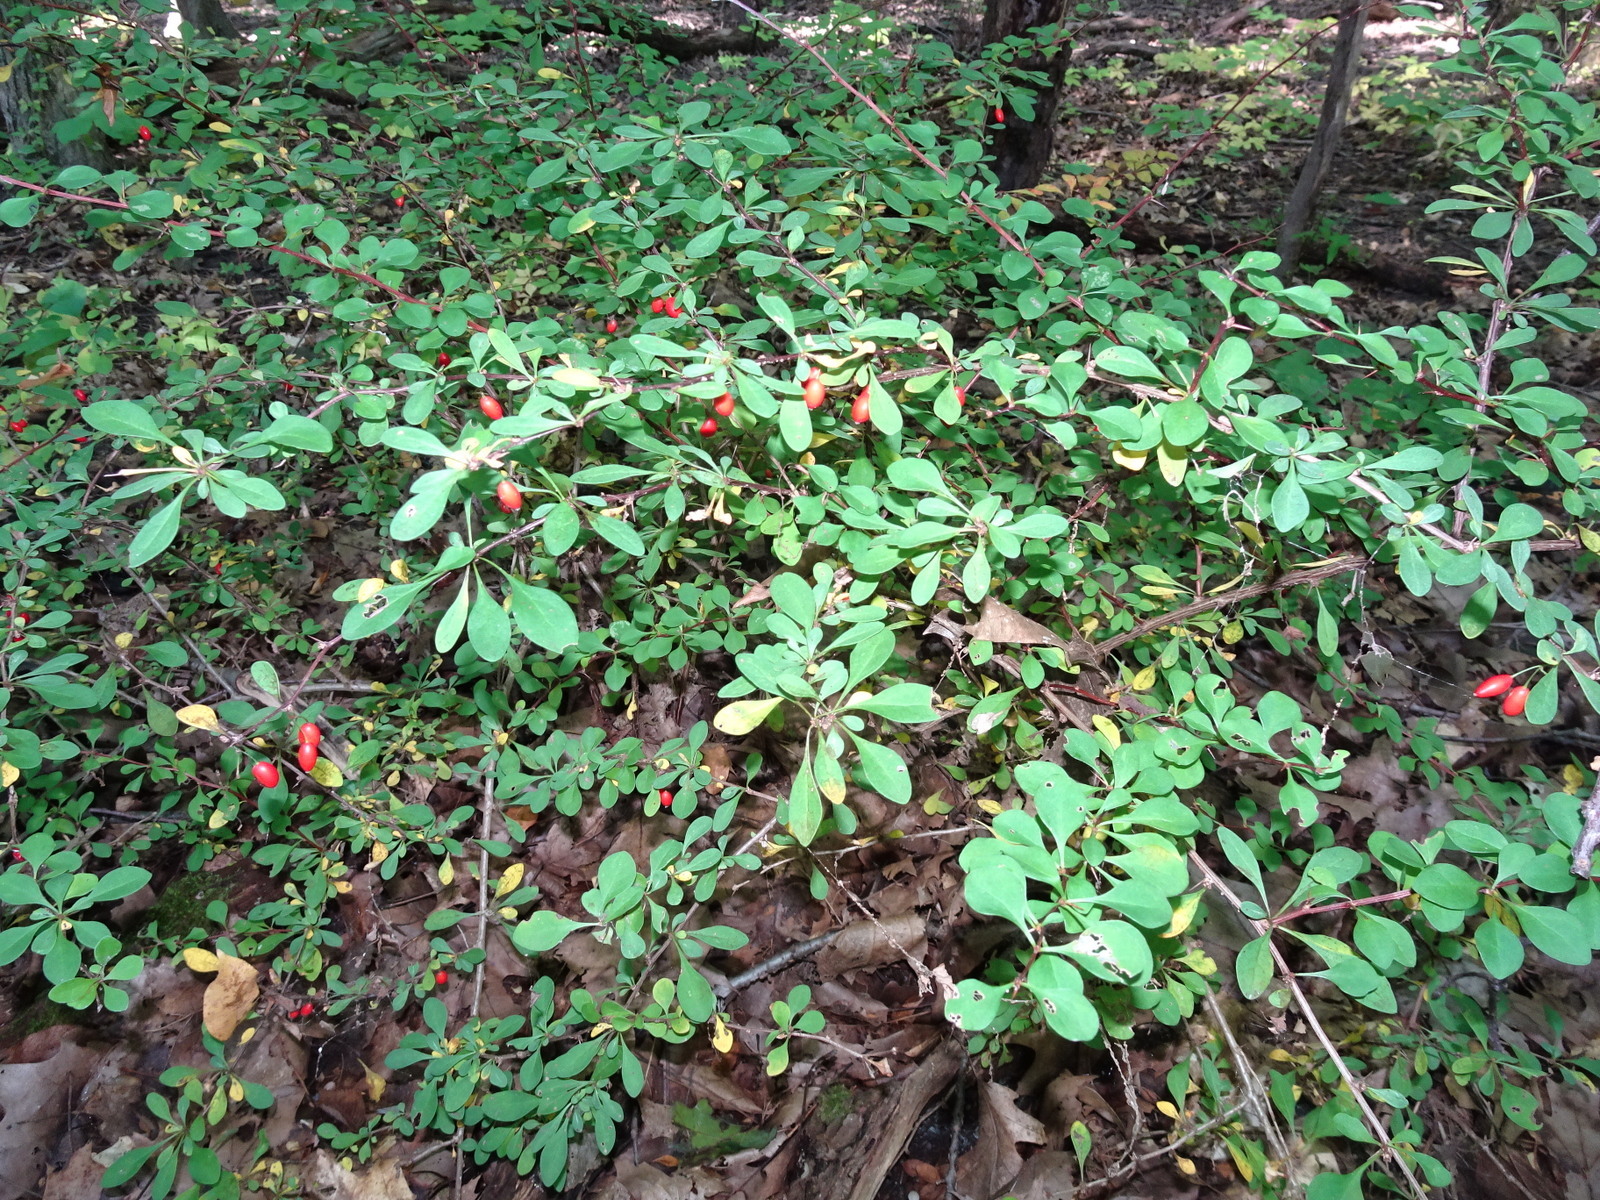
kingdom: Plantae
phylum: Tracheophyta
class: Magnoliopsida
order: Ranunculales
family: Berberidaceae
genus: Berberis
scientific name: Berberis thunbergii
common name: Japanese barberry
